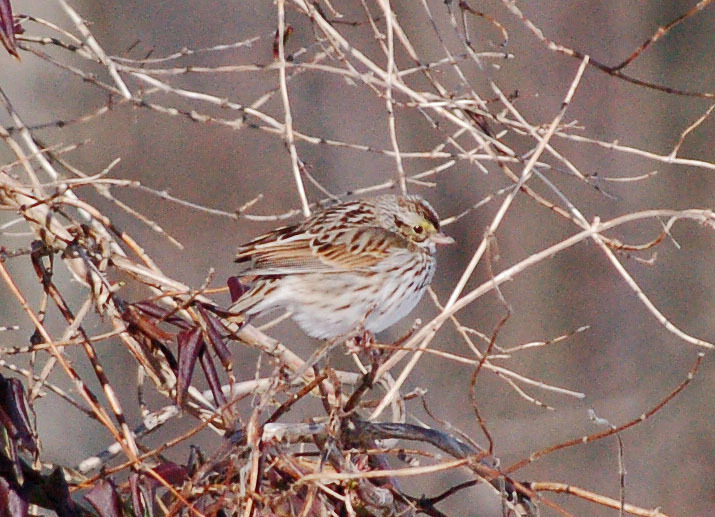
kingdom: Animalia
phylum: Chordata
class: Aves
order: Passeriformes
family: Passerellidae
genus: Passerculus
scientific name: Passerculus sandwichensis
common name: Savannah sparrow
